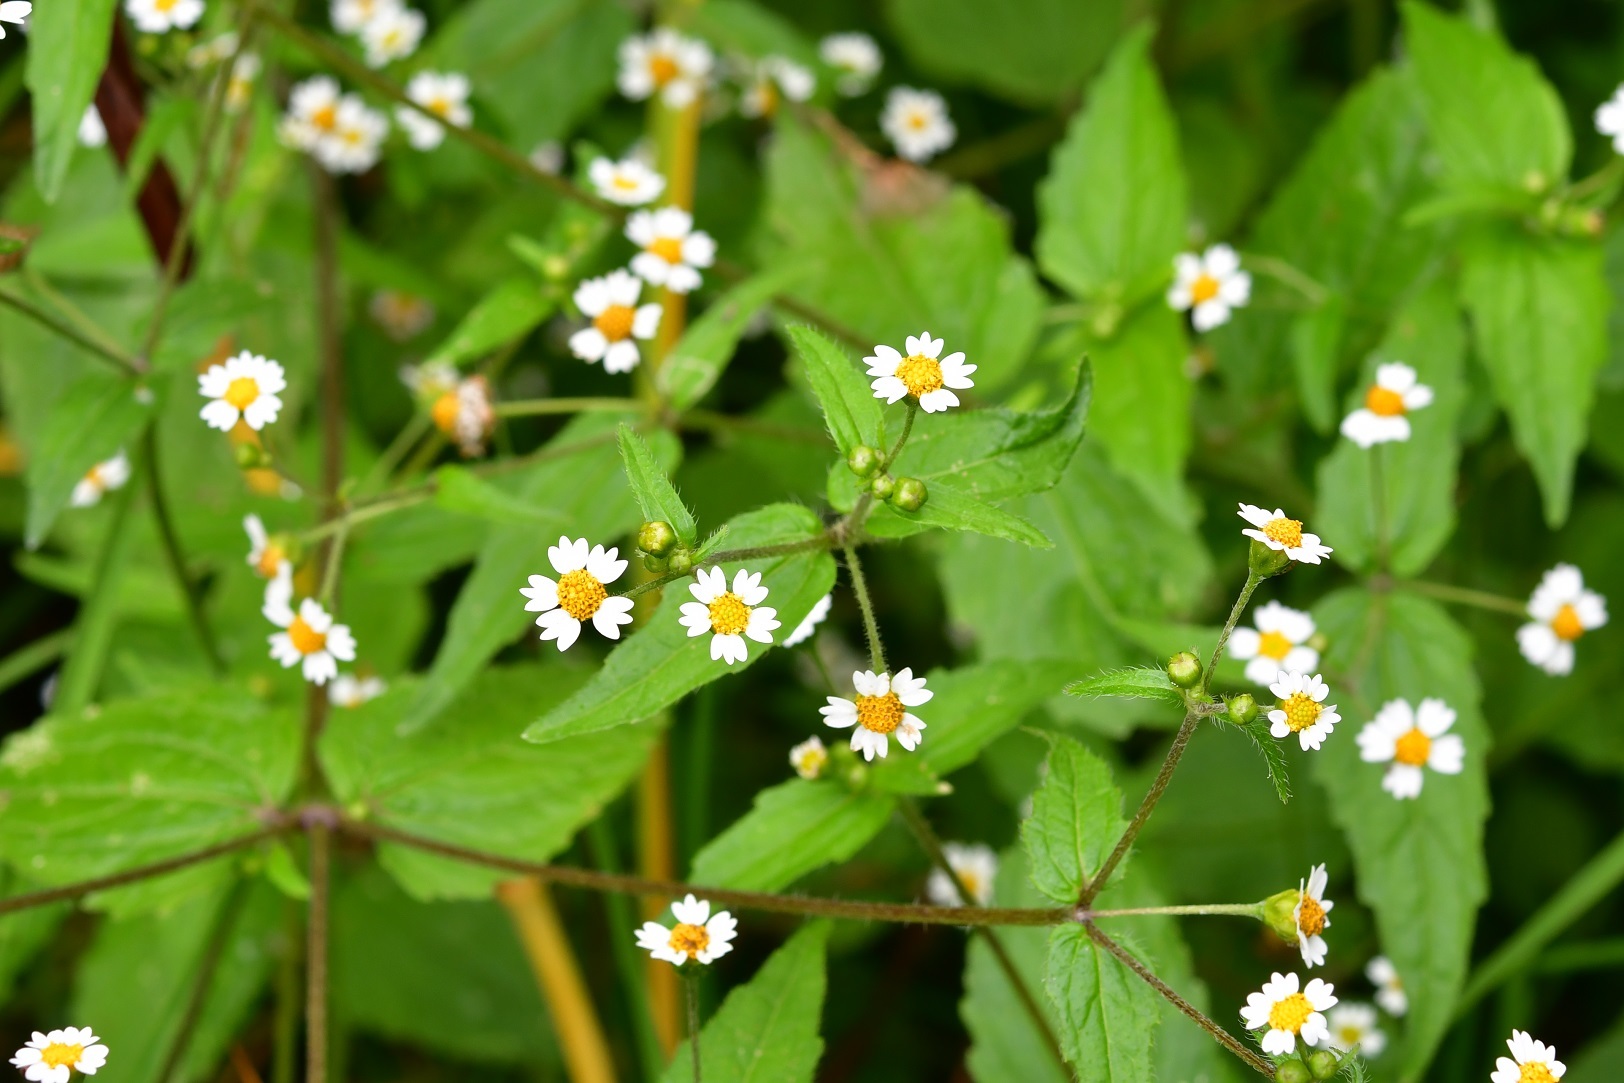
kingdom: Plantae
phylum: Tracheophyta
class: Magnoliopsida
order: Asterales
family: Asteraceae
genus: Galinsoga
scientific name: Galinsoga quadriradiata
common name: Shaggy soldier
